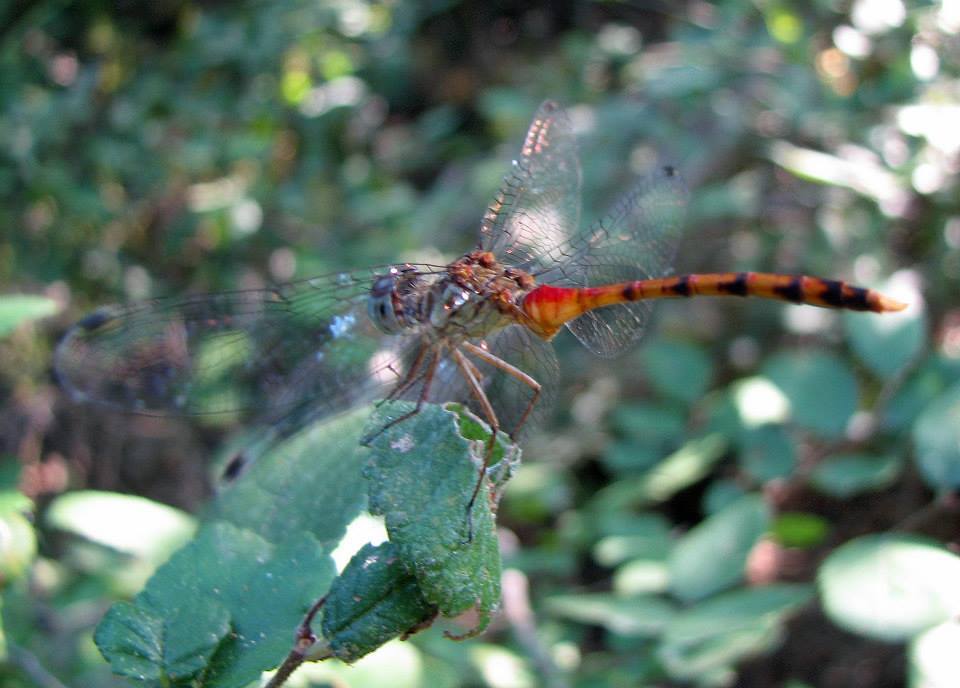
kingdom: Animalia
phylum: Arthropoda
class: Insecta
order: Odonata
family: Libellulidae
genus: Sympetrum
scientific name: Sympetrum ambiguum
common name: Blue-faced meadowhawk
